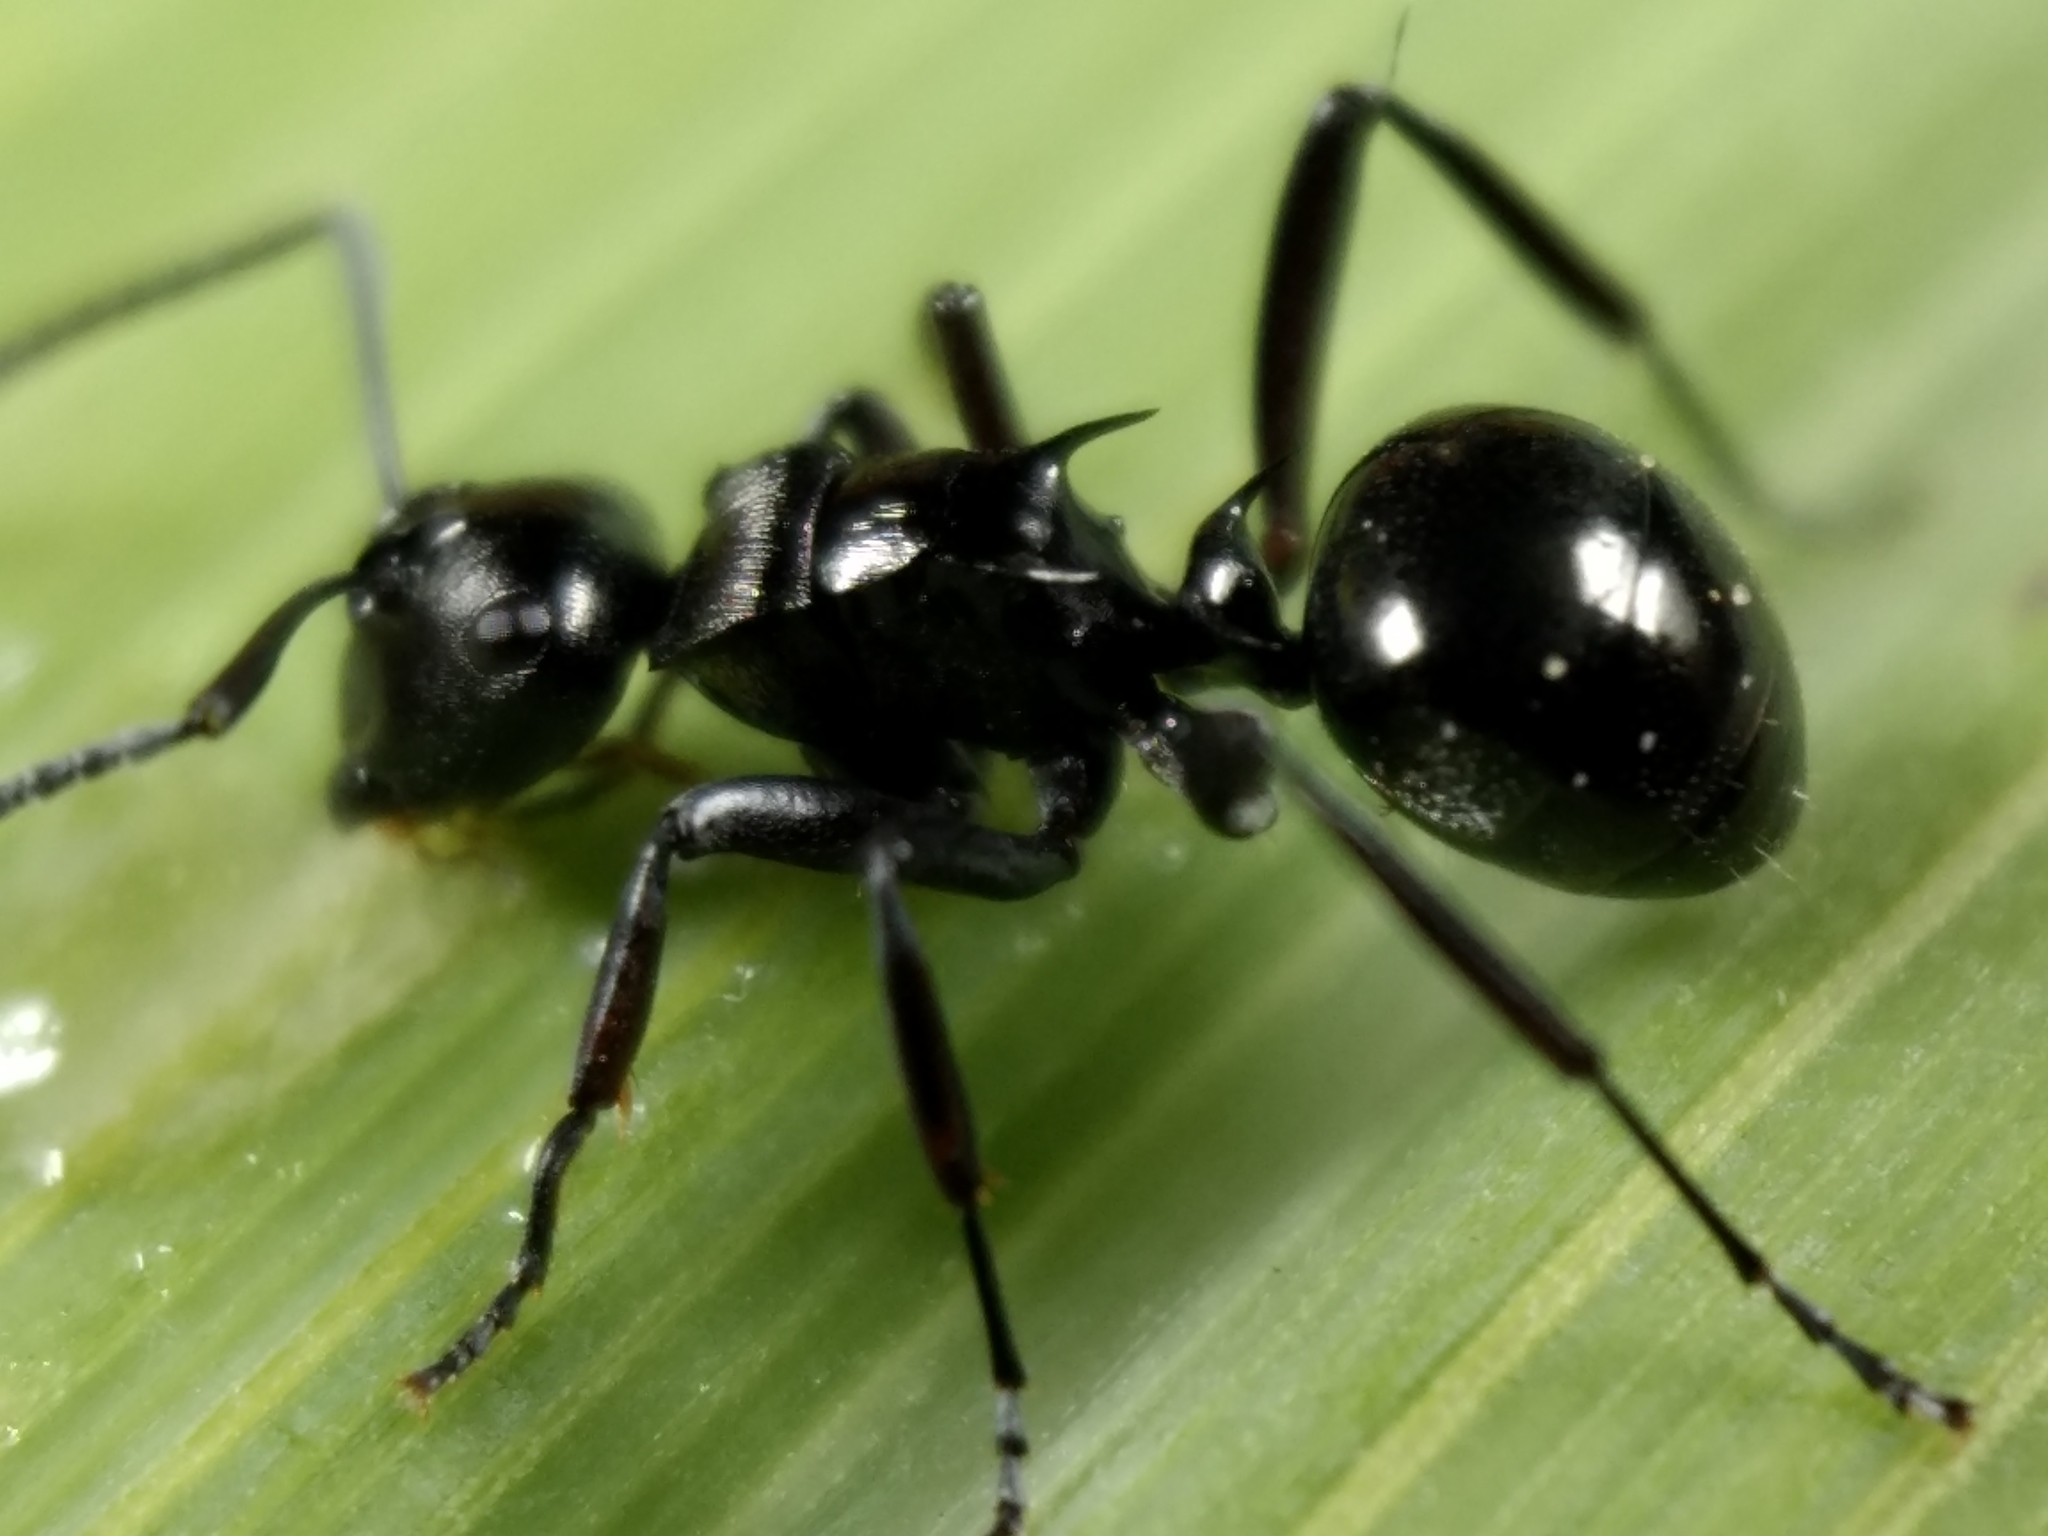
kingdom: Animalia
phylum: Arthropoda
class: Insecta
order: Hymenoptera
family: Formicidae
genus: Polyrhachis
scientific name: Polyrhachis clio
